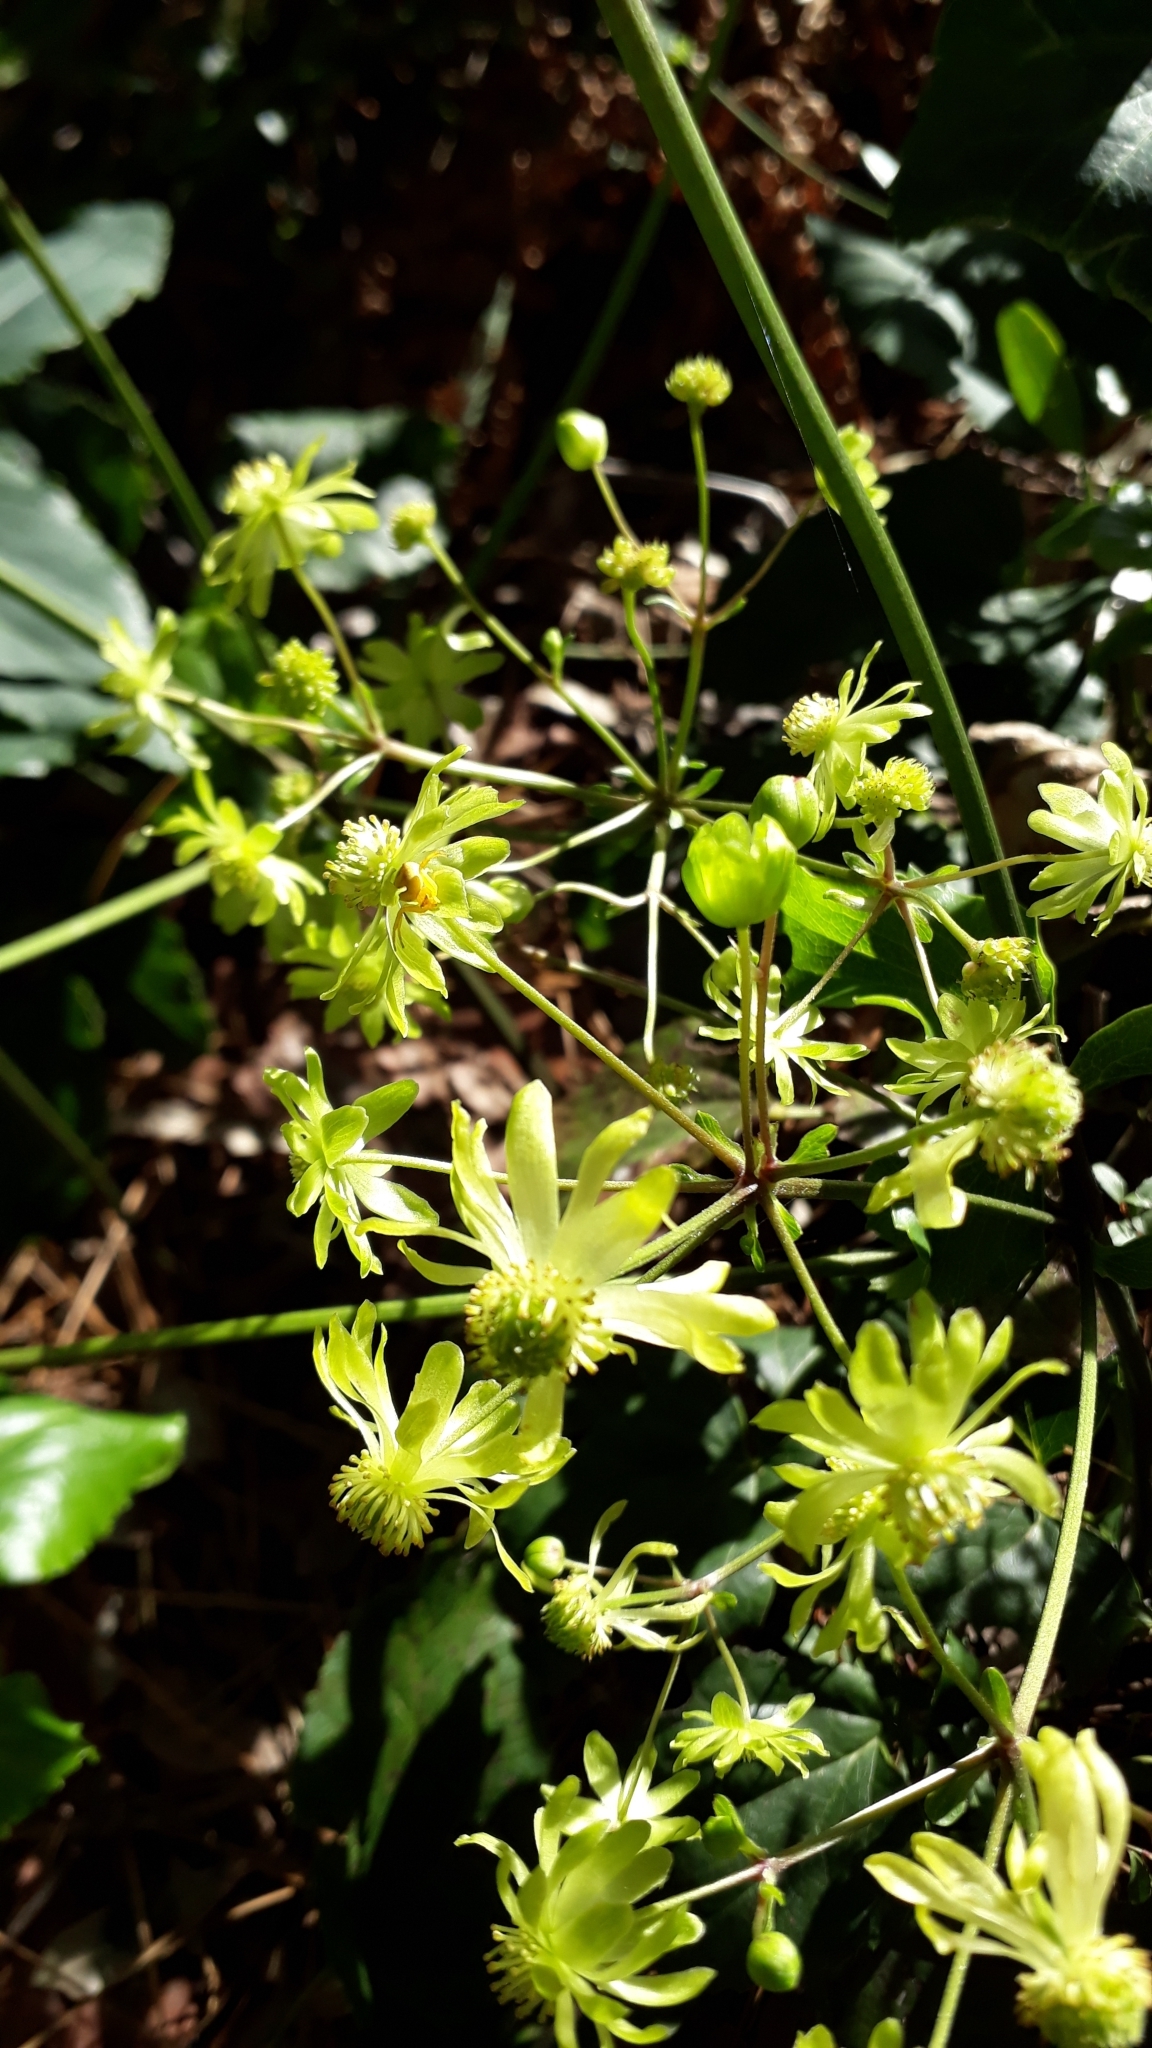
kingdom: Plantae
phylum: Tracheophyta
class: Magnoliopsida
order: Ranunculales
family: Ranunculaceae
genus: Knowltonia
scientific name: Knowltonia vesicatoria
